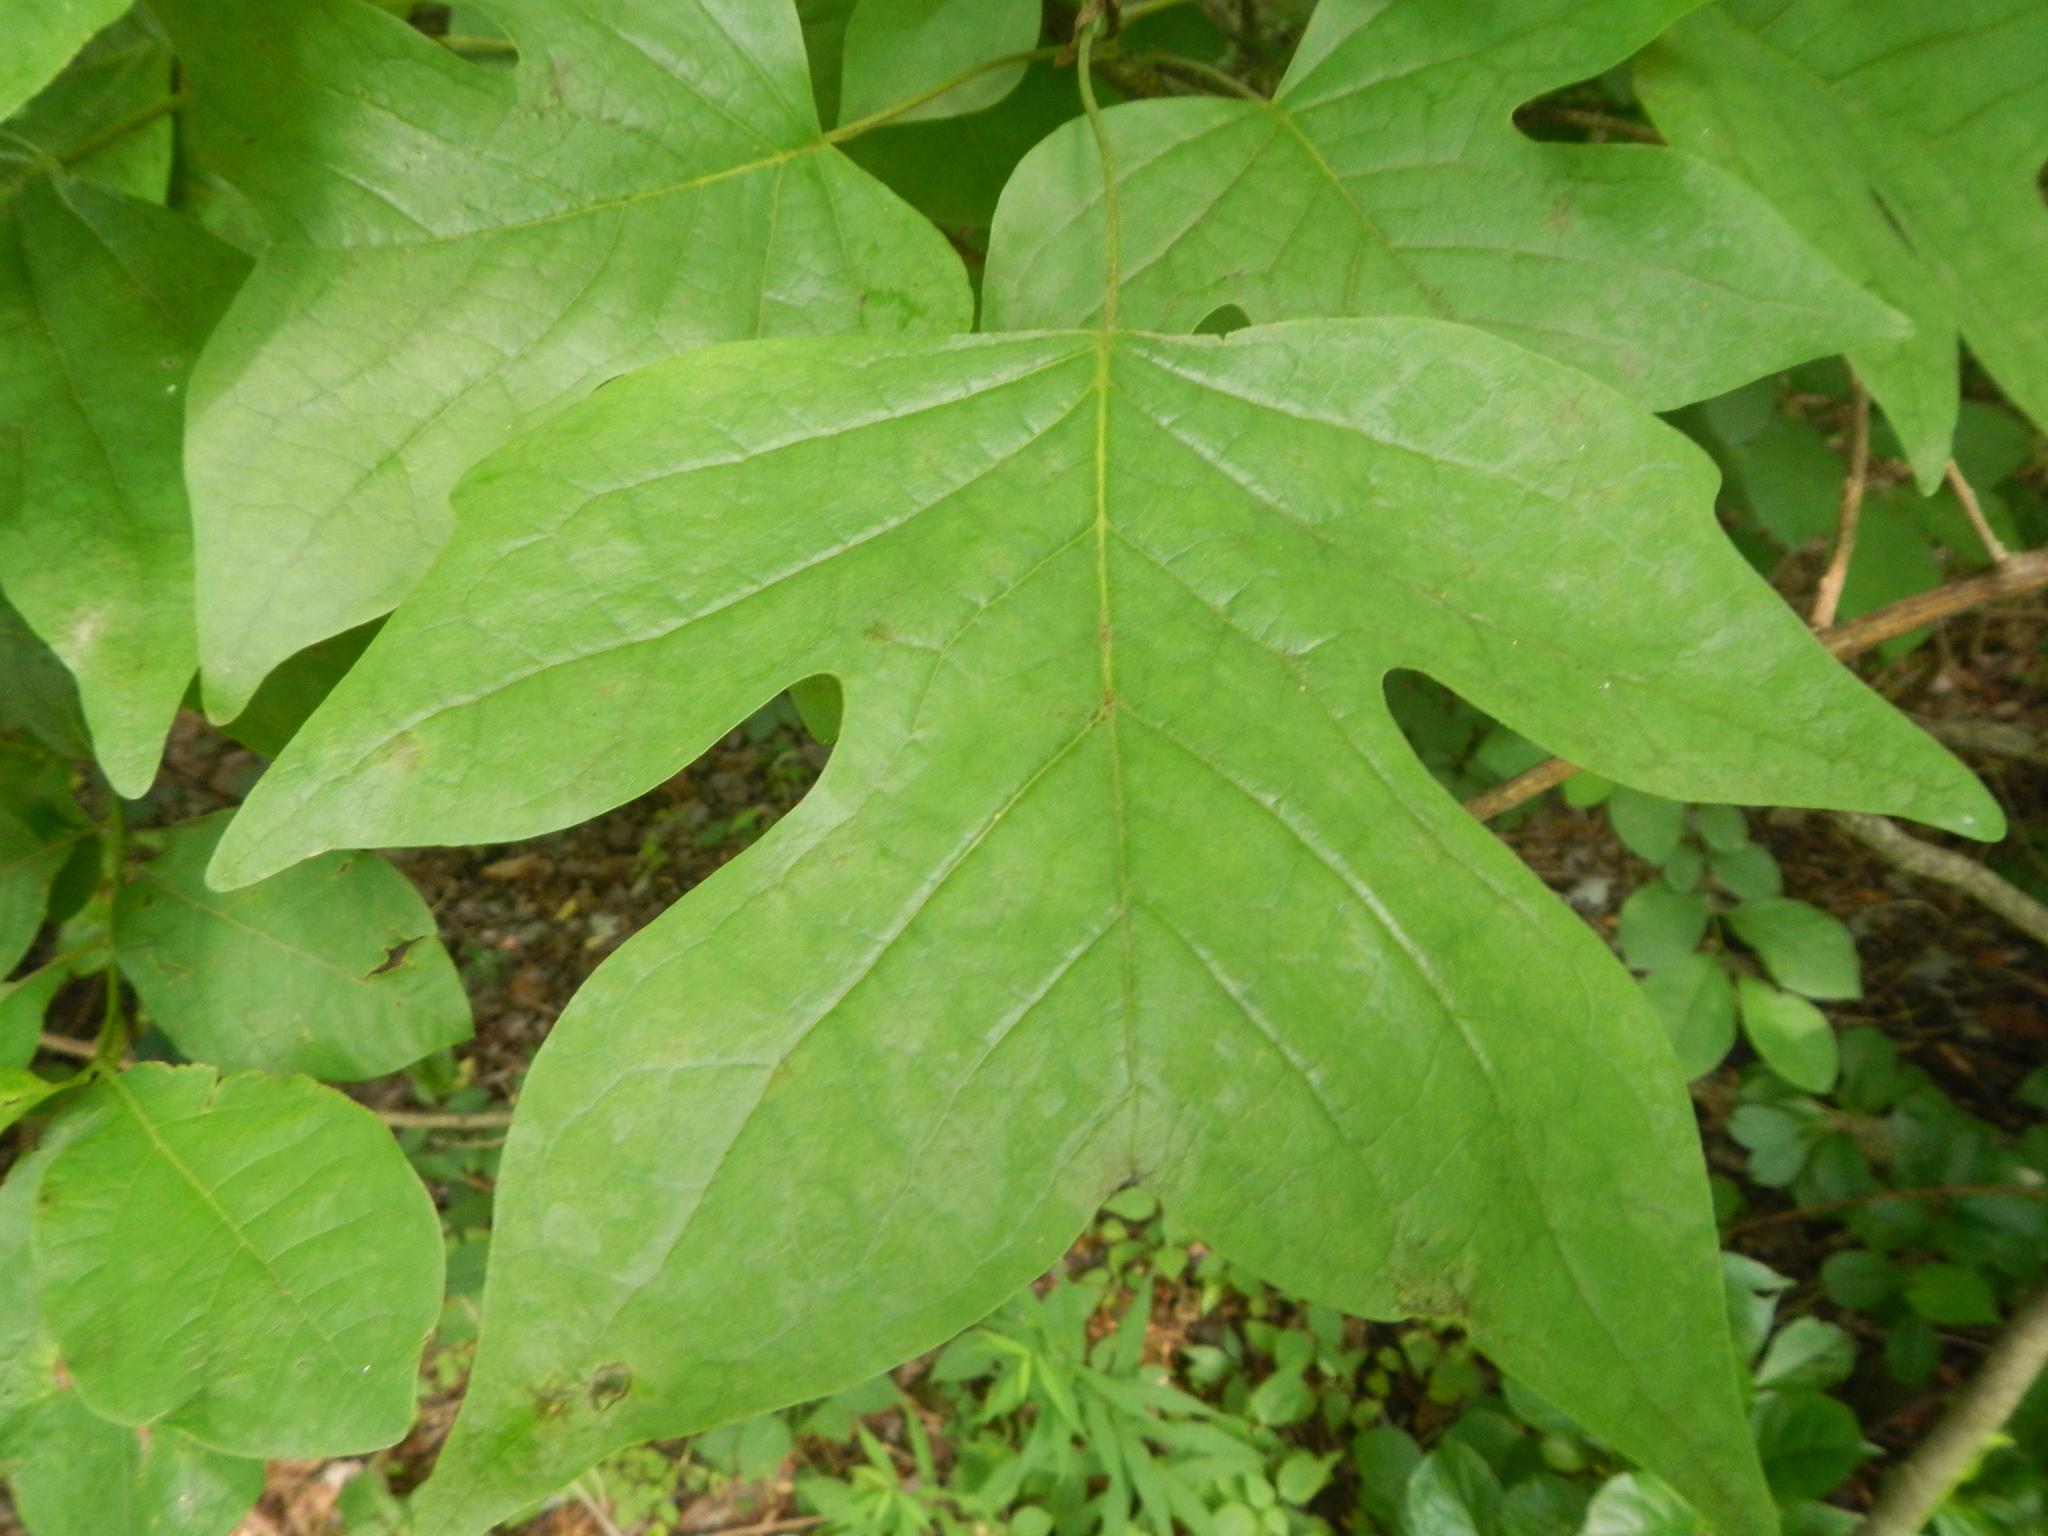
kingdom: Plantae
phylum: Tracheophyta
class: Magnoliopsida
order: Magnoliales
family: Magnoliaceae
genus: Liriodendron
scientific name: Liriodendron tulipifera
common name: Tulip tree
